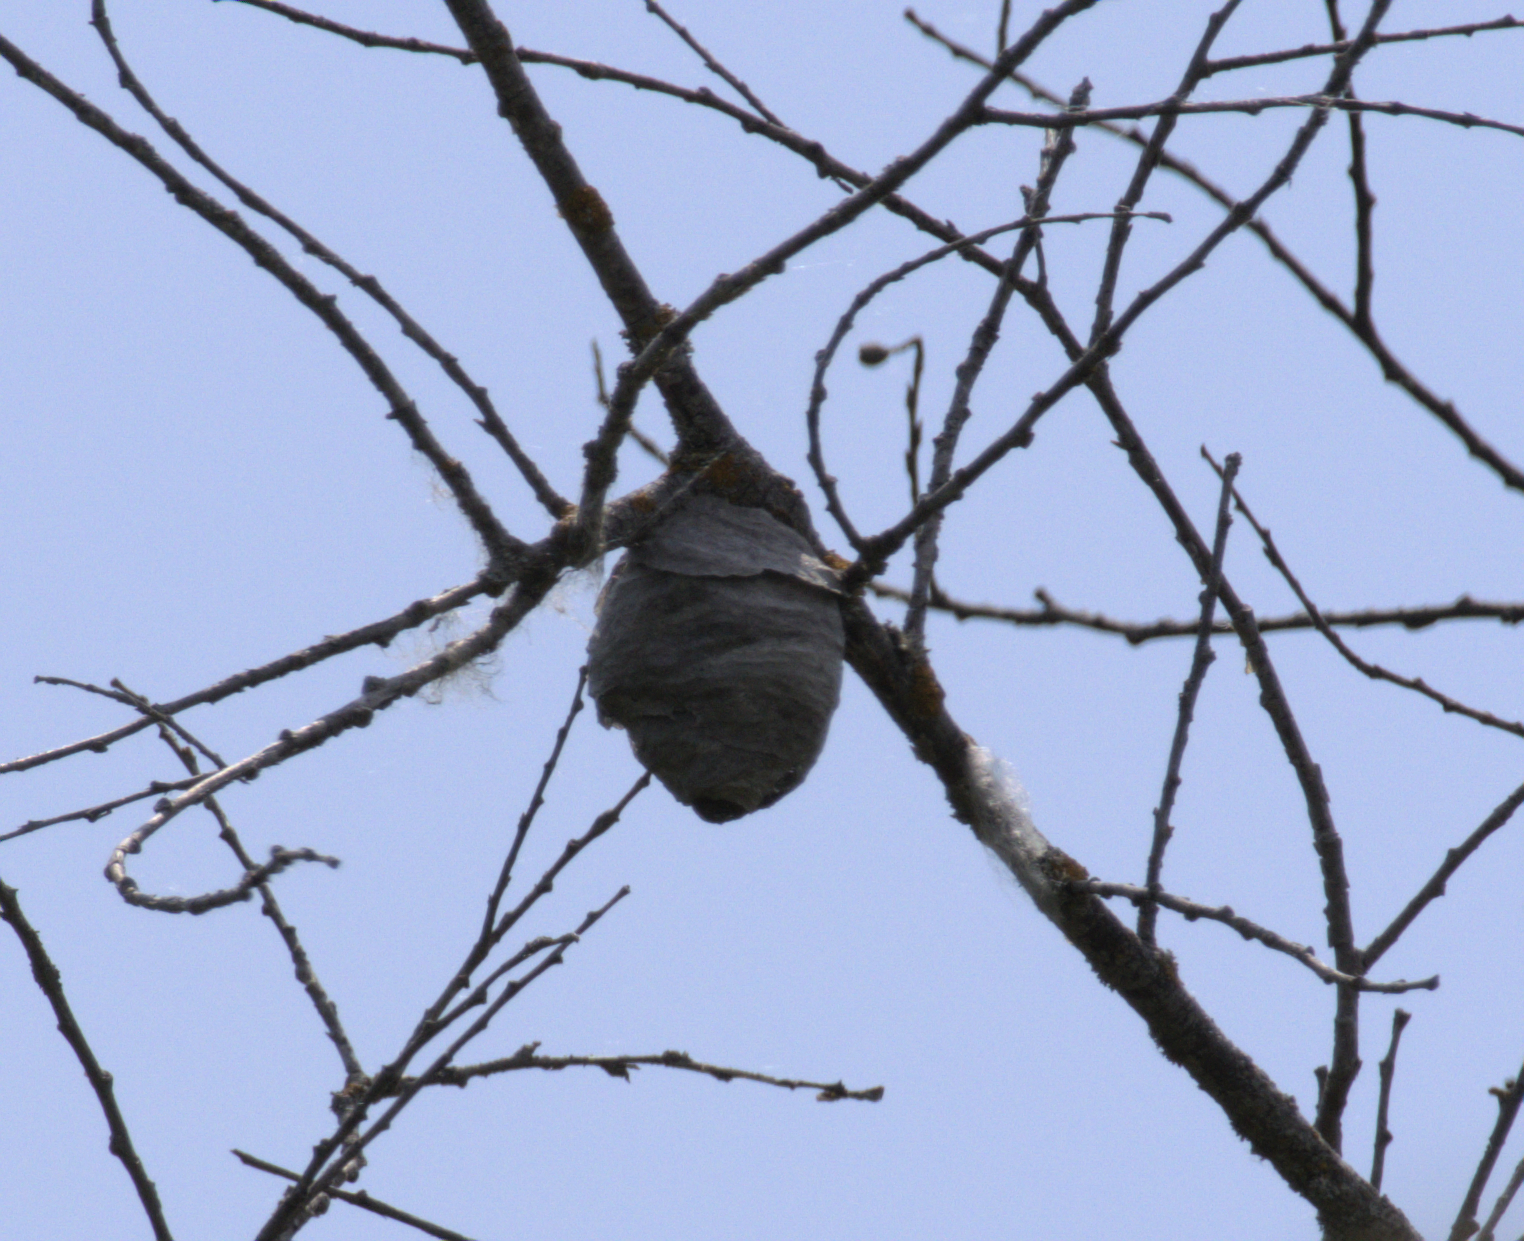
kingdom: Animalia
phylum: Arthropoda
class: Insecta
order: Hymenoptera
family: Vespidae
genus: Dolichovespula
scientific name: Dolichovespula
